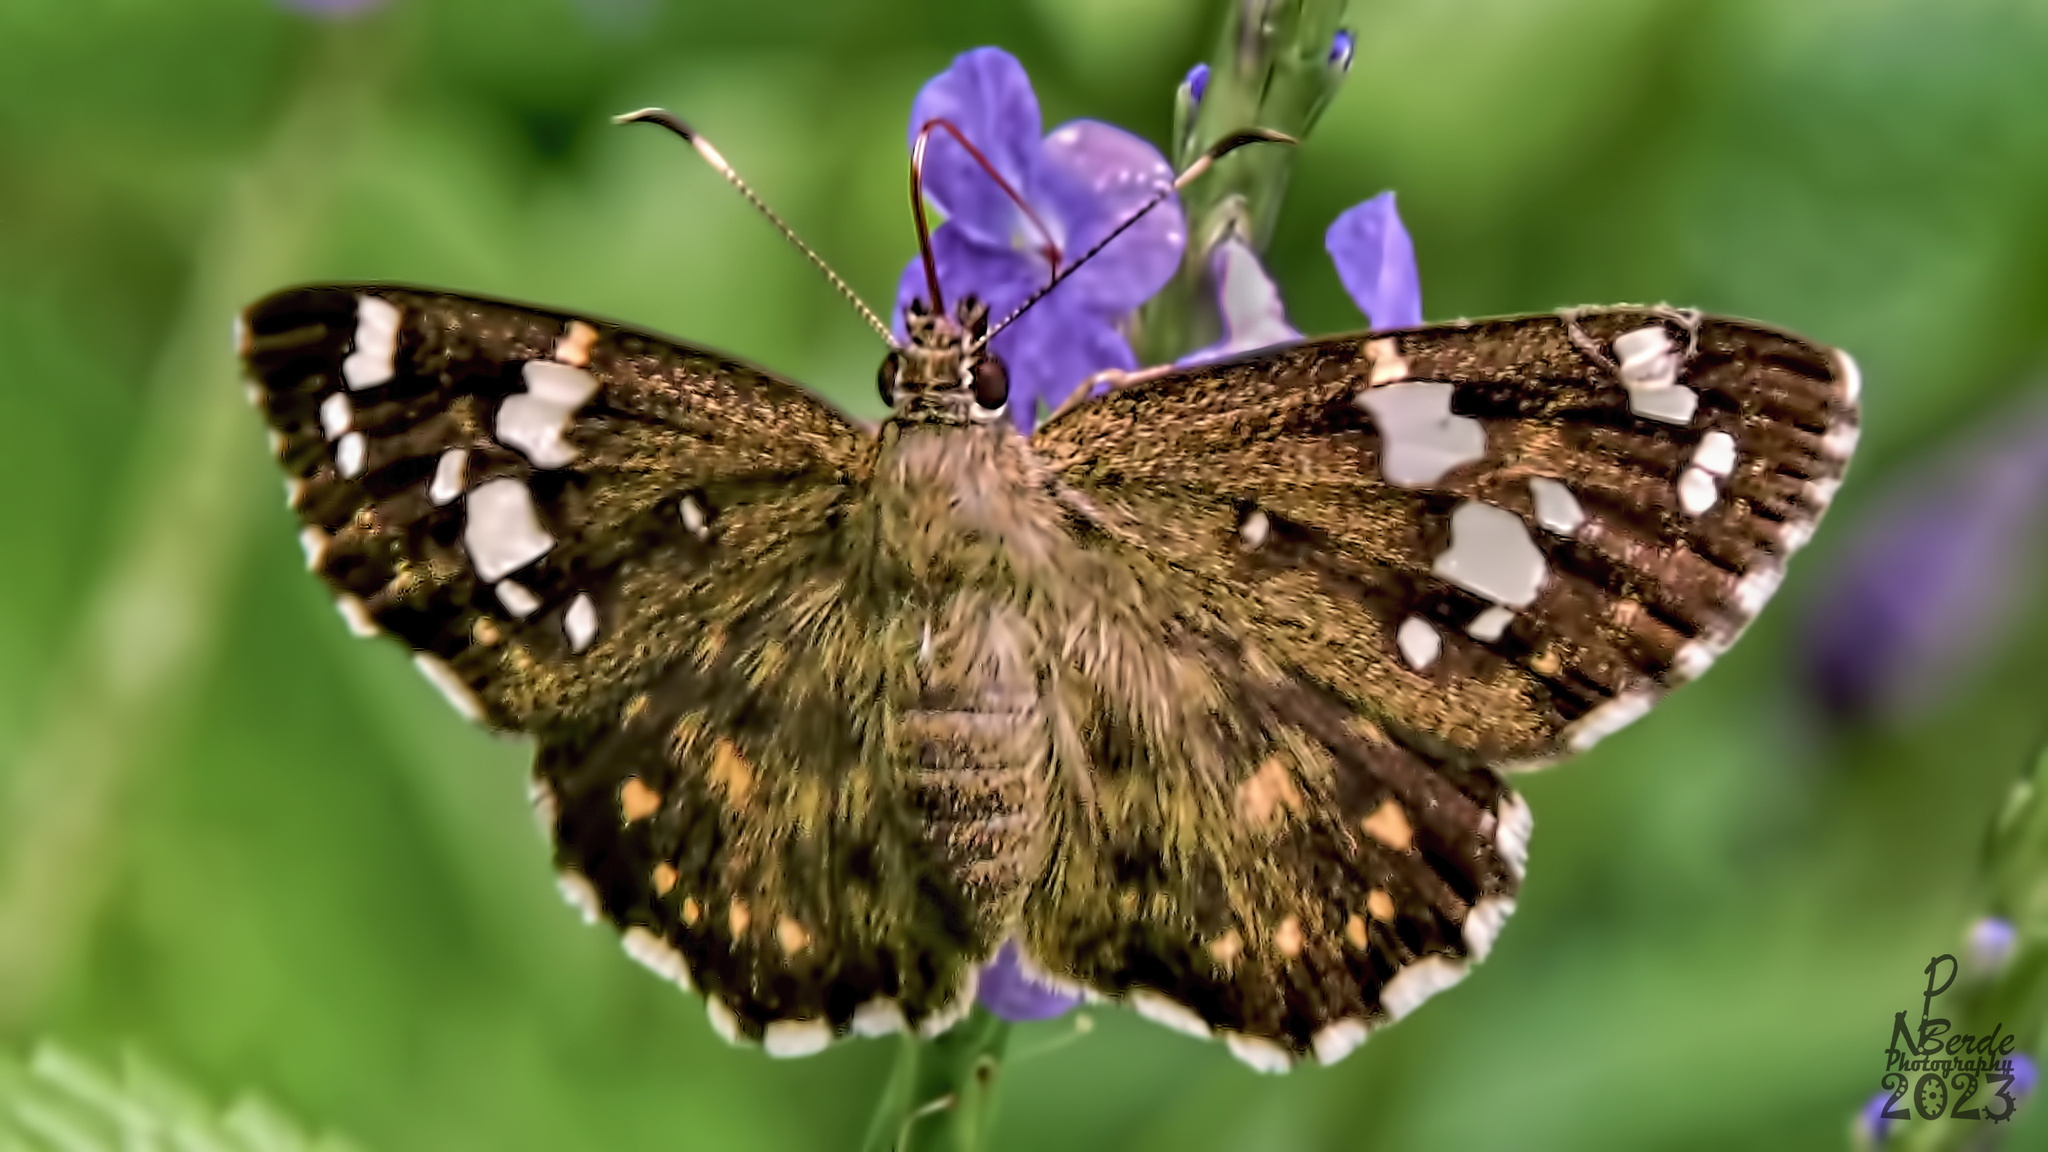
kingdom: Animalia
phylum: Arthropoda
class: Insecta
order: Lepidoptera
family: Hesperiidae
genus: Celaenorrhinus
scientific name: Celaenorrhinus ambareesa
